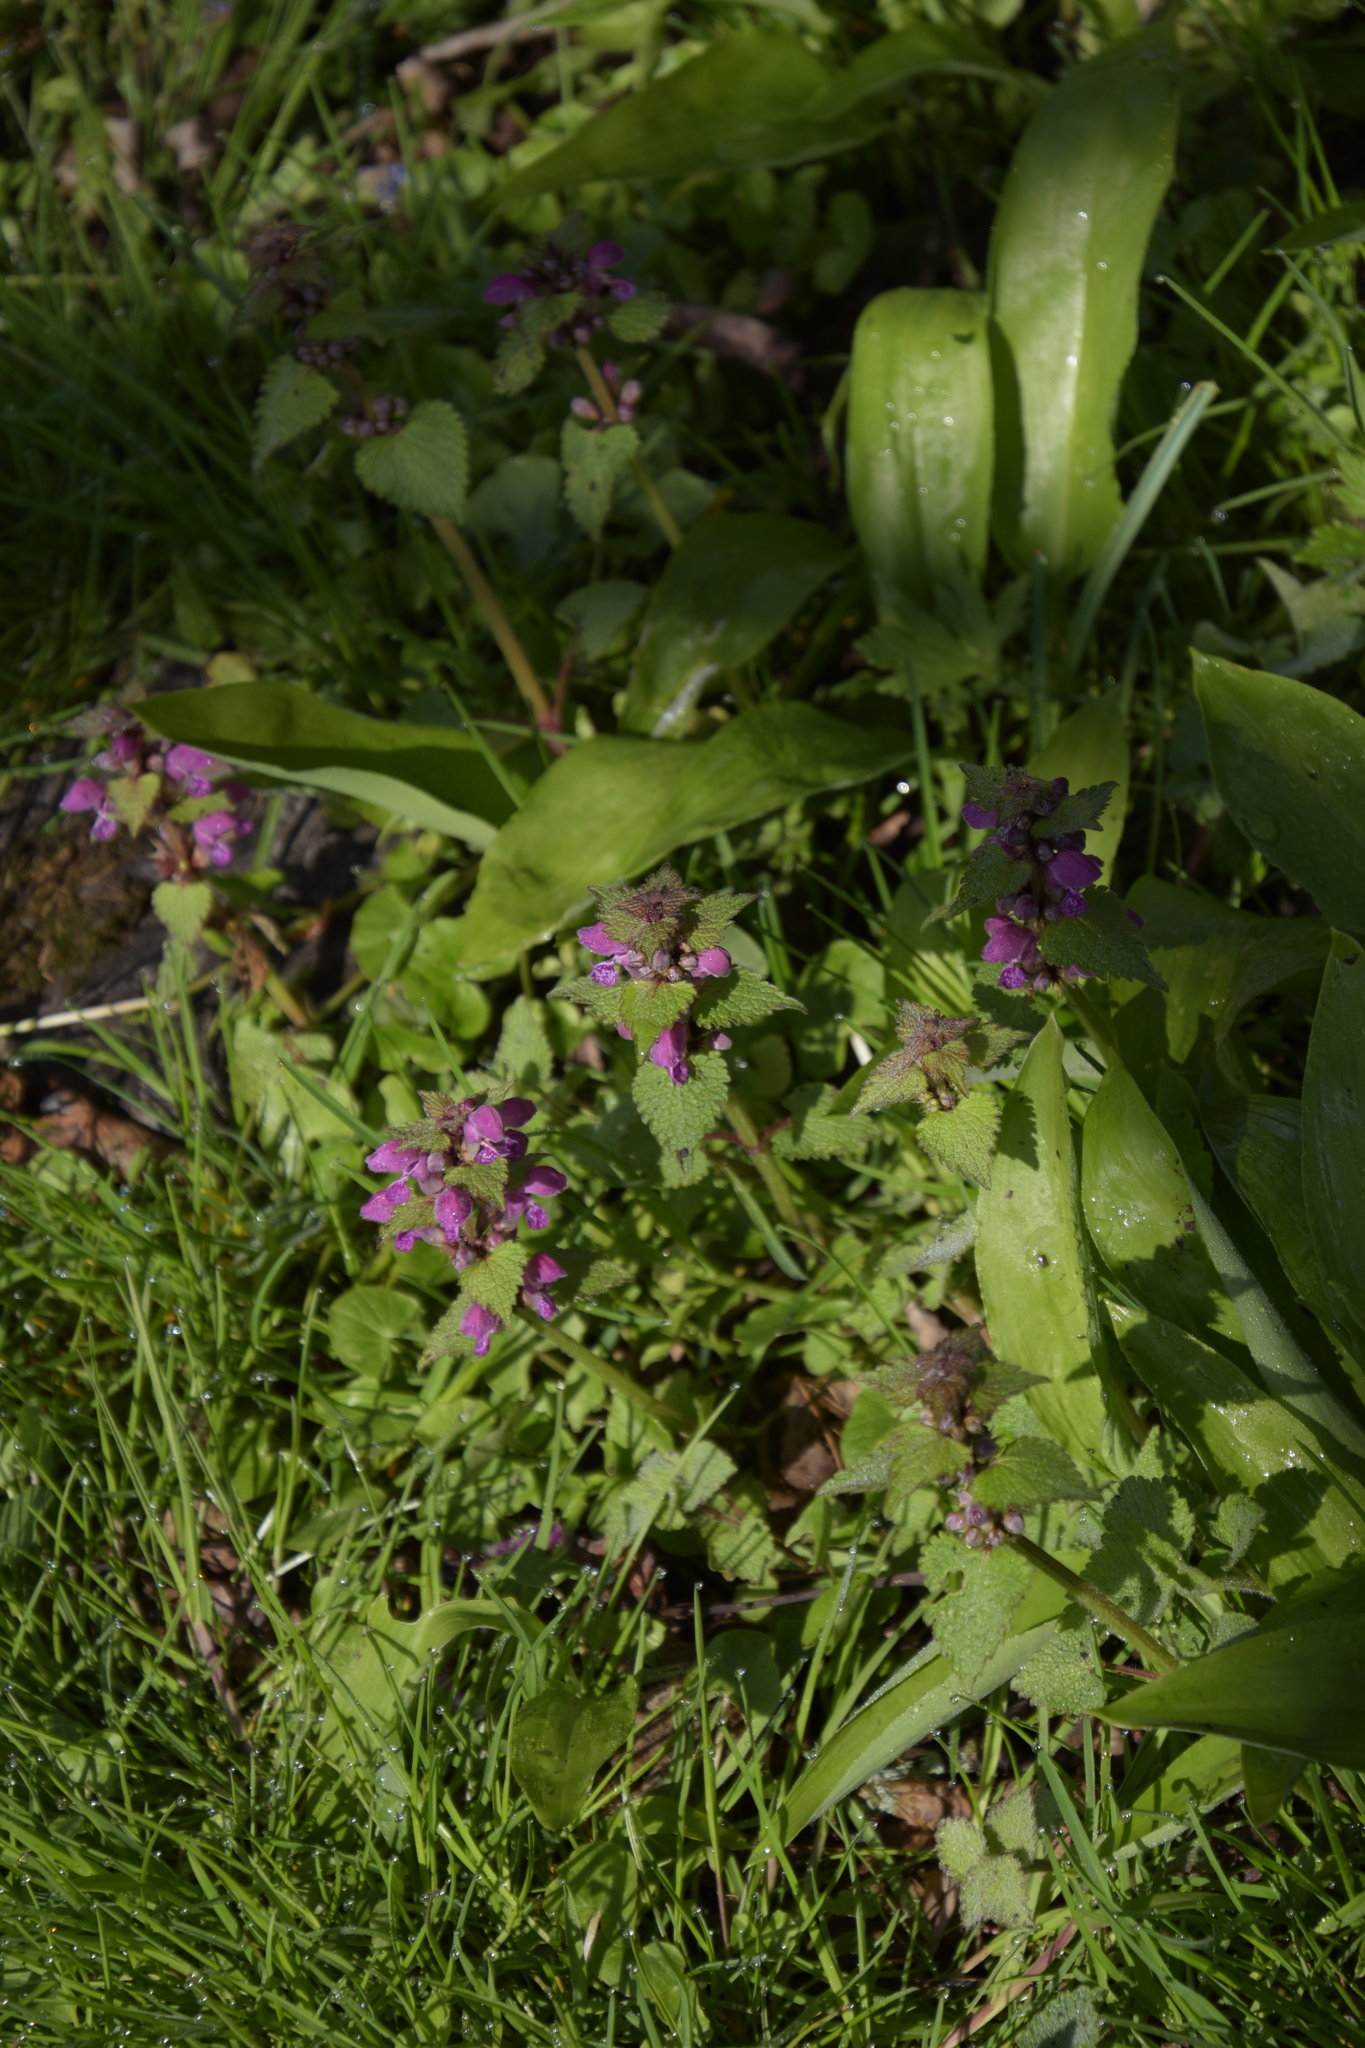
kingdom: Plantae
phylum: Tracheophyta
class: Magnoliopsida
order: Lamiales
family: Lamiaceae
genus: Lamium
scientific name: Lamium maculatum
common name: Spotted dead-nettle
